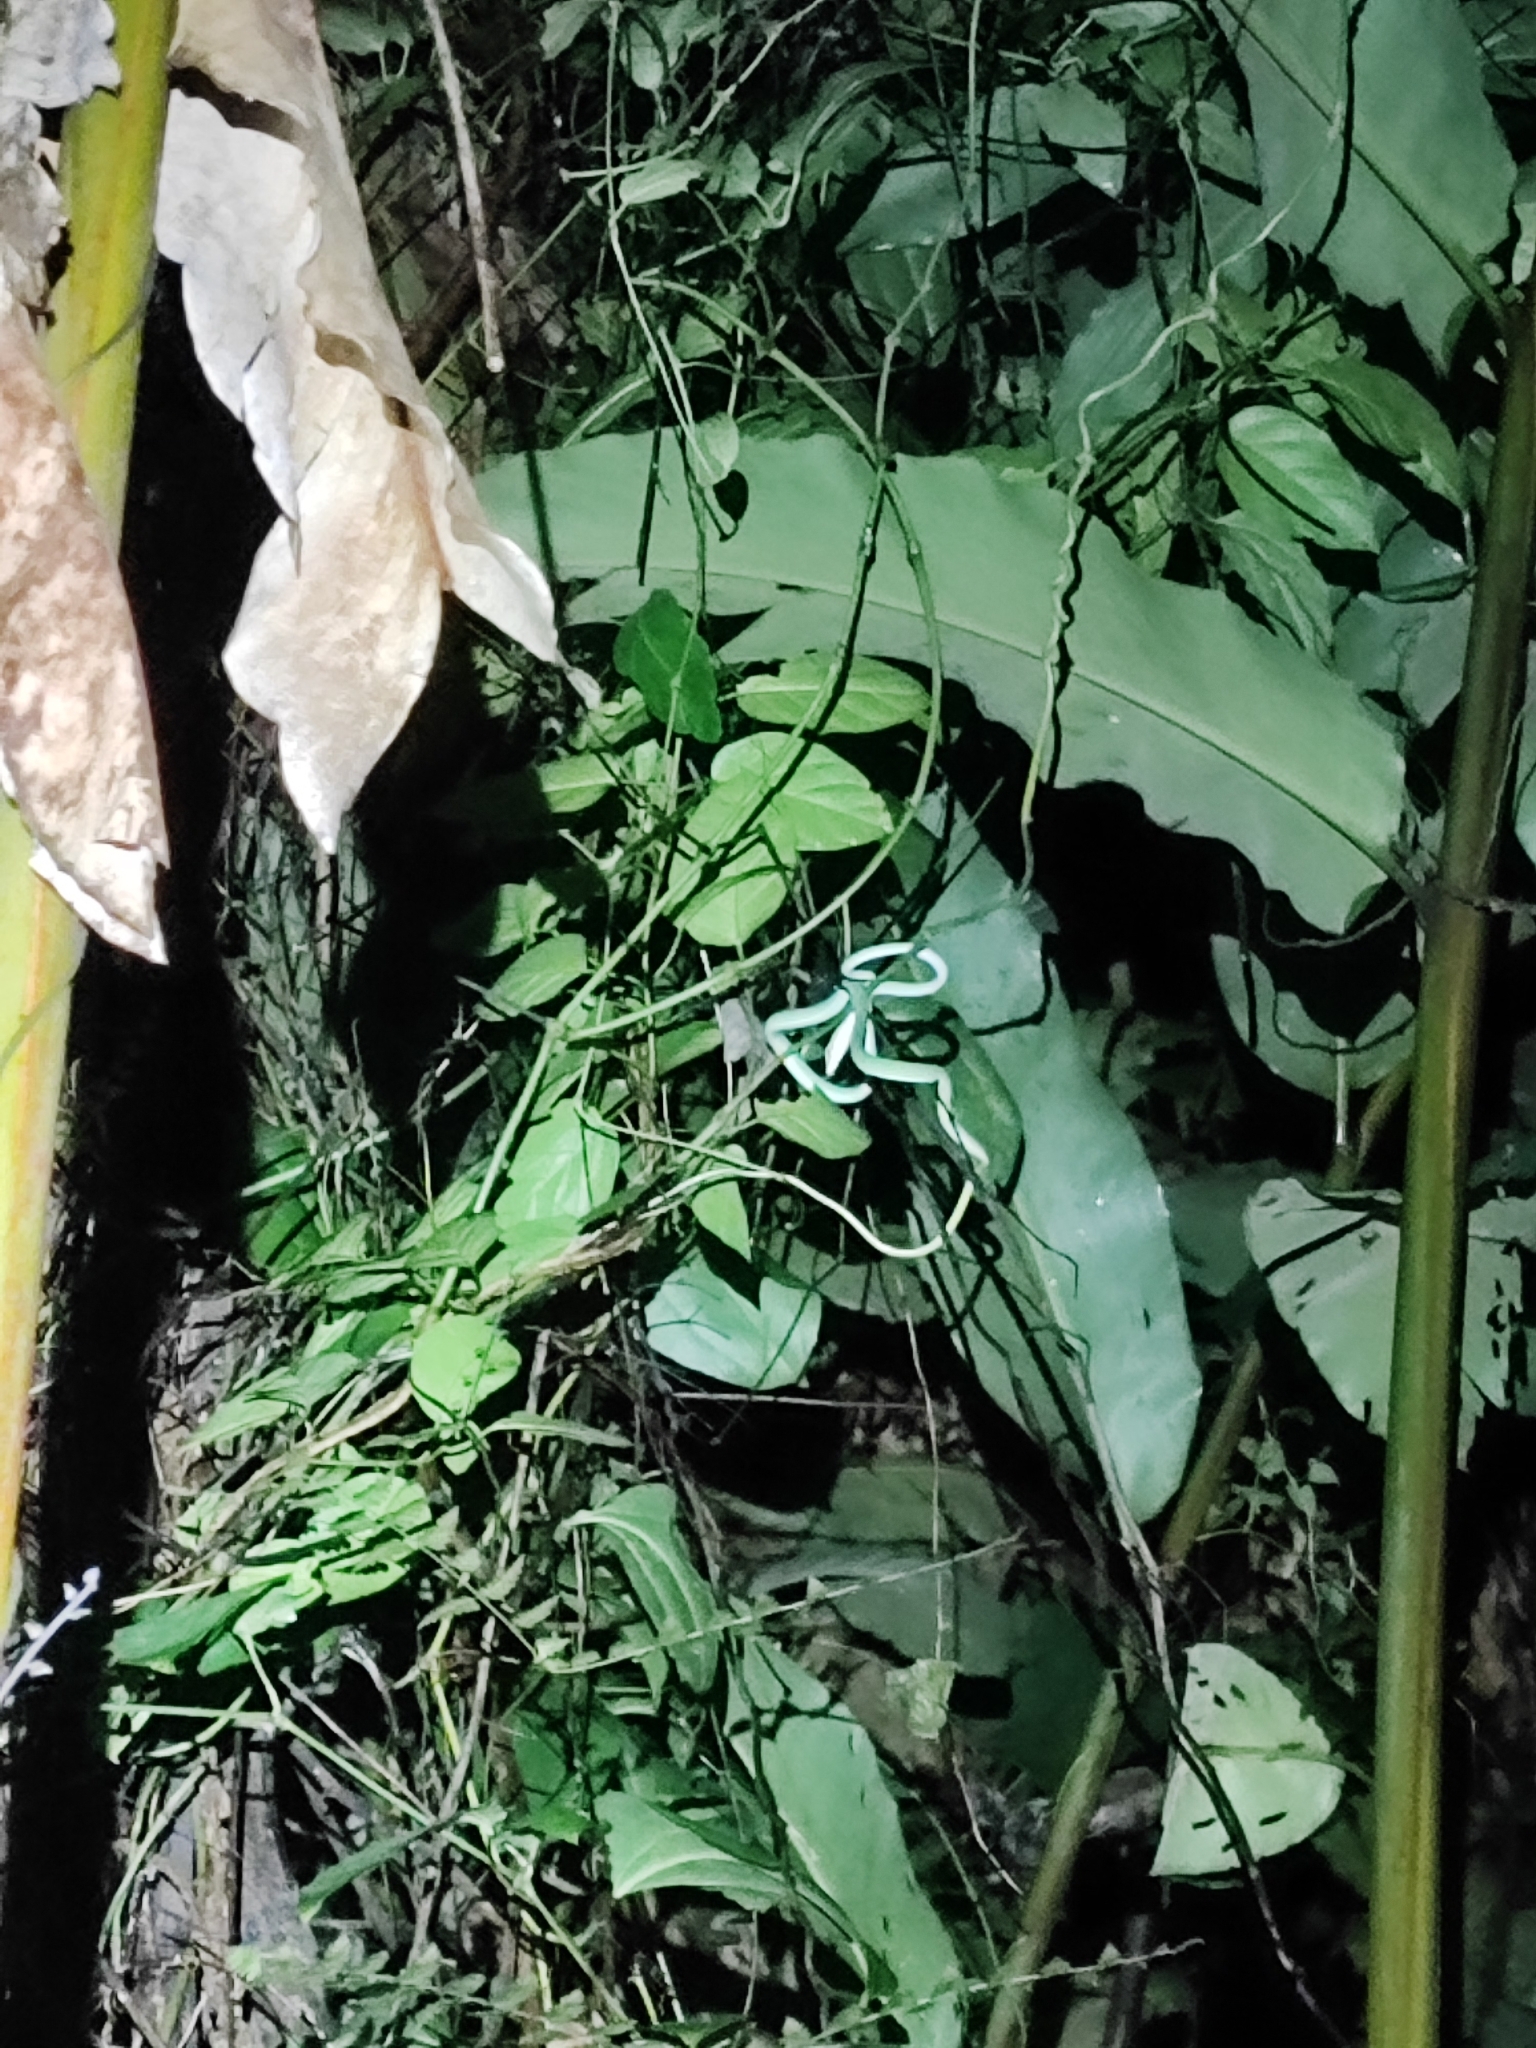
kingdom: Animalia
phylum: Chordata
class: Squamata
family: Colubridae
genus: Ahaetulla
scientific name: Ahaetulla prasina
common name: Oriental whip snake
